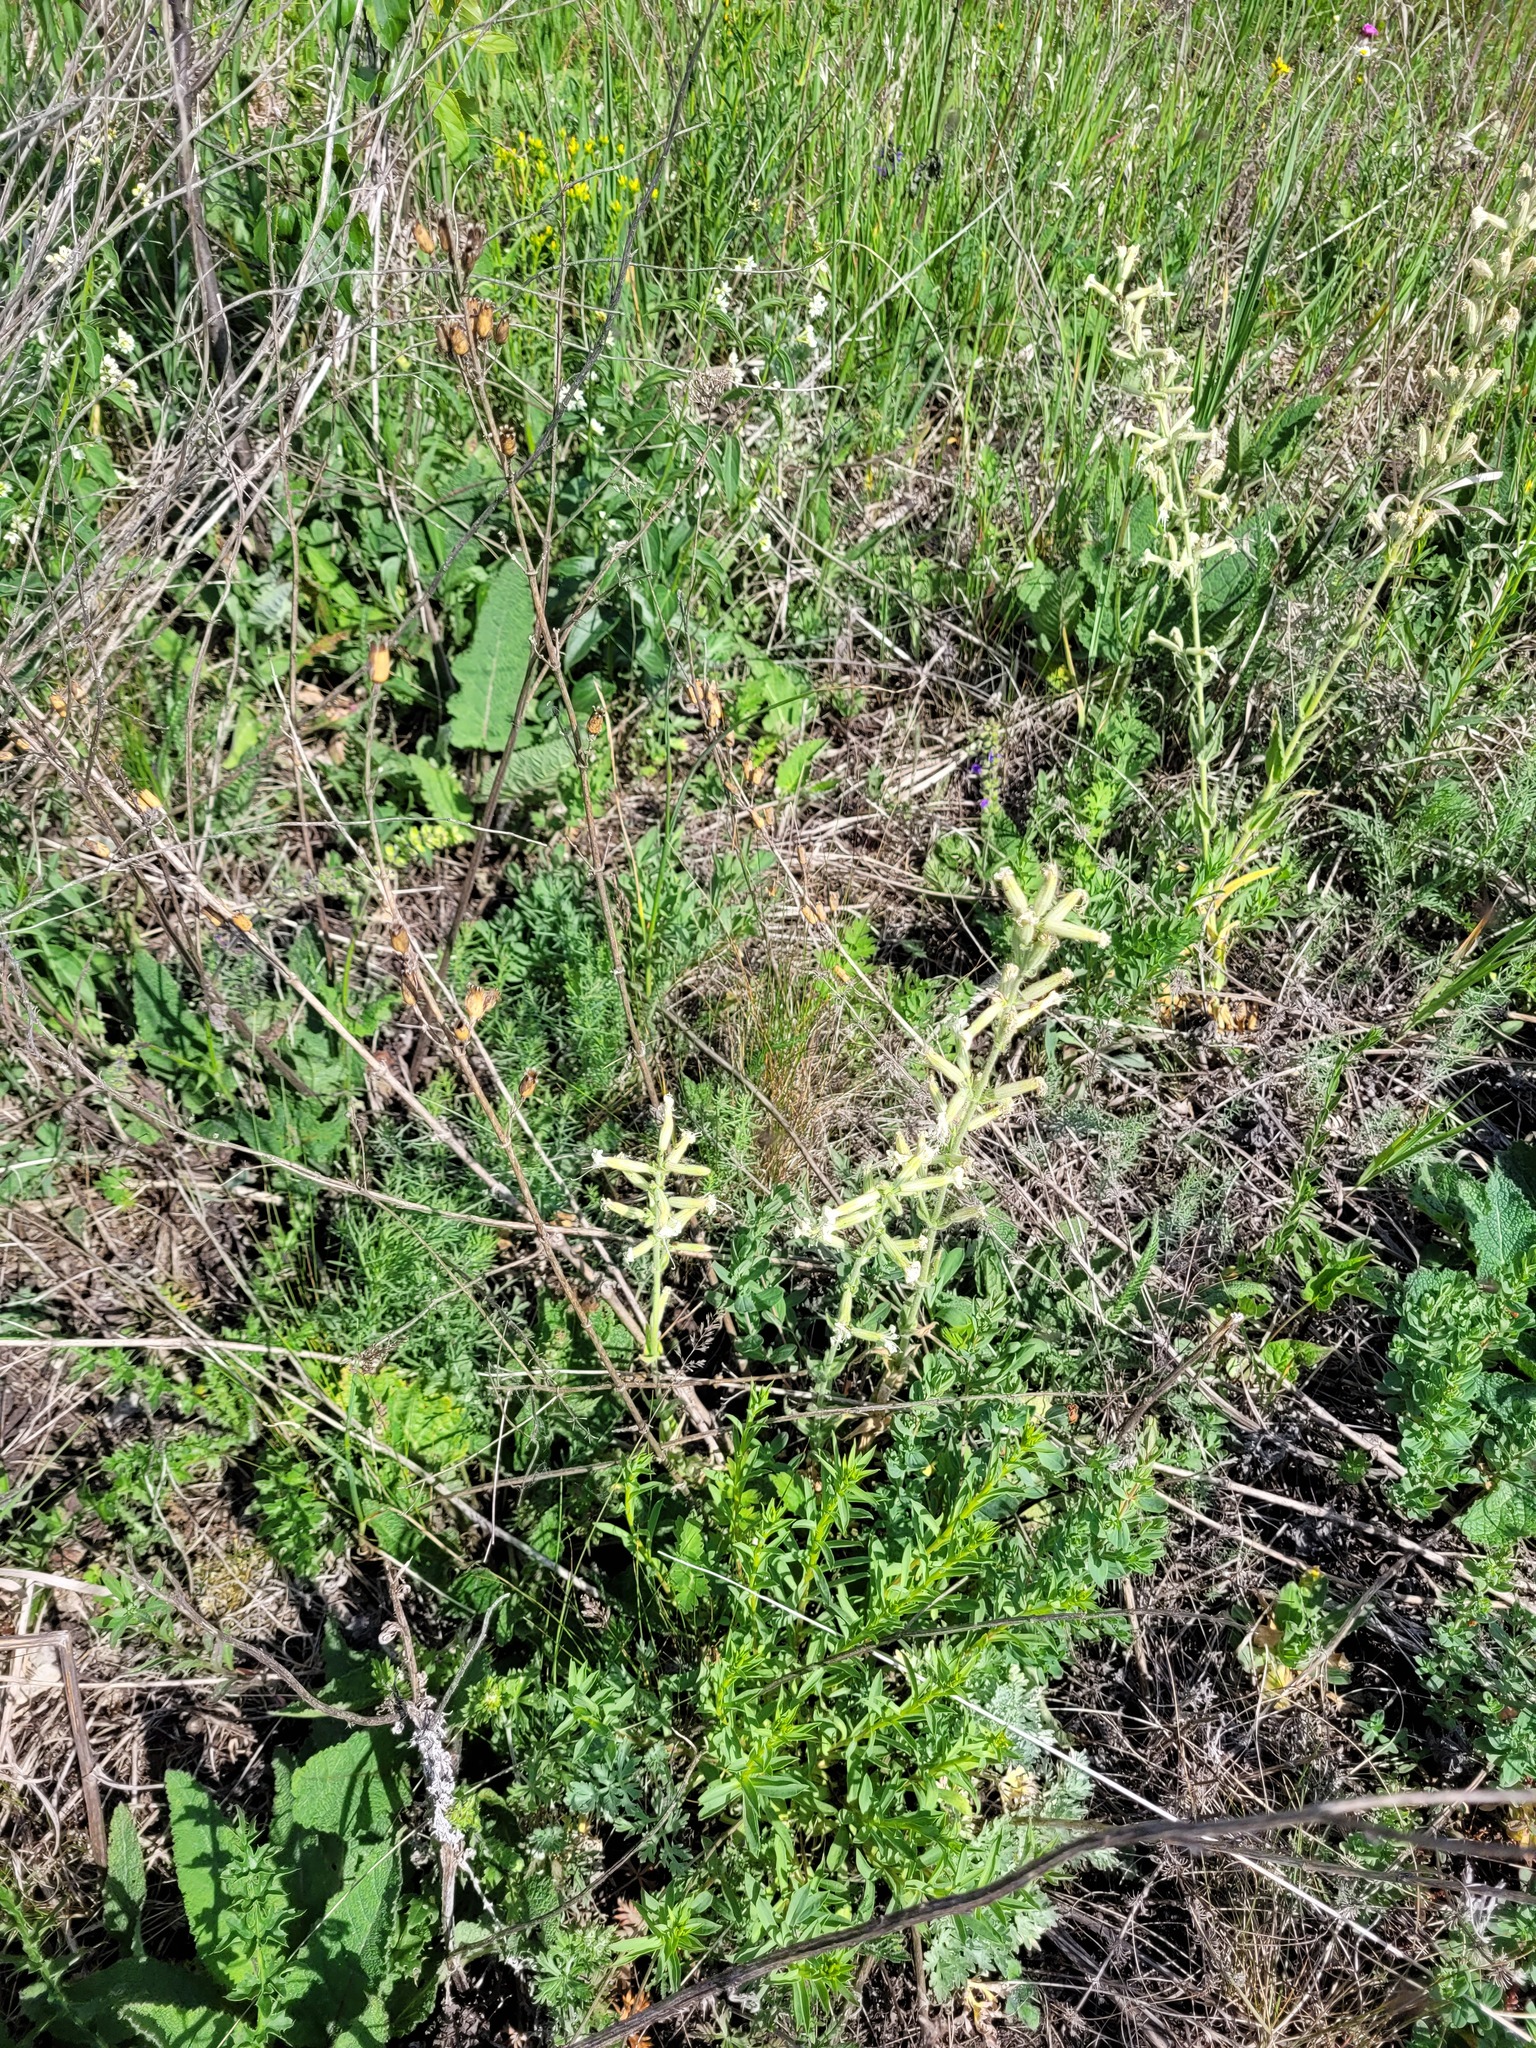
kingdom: Plantae
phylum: Tracheophyta
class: Magnoliopsida
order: Caryophyllales
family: Caryophyllaceae
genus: Silene
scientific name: Silene viscosa
